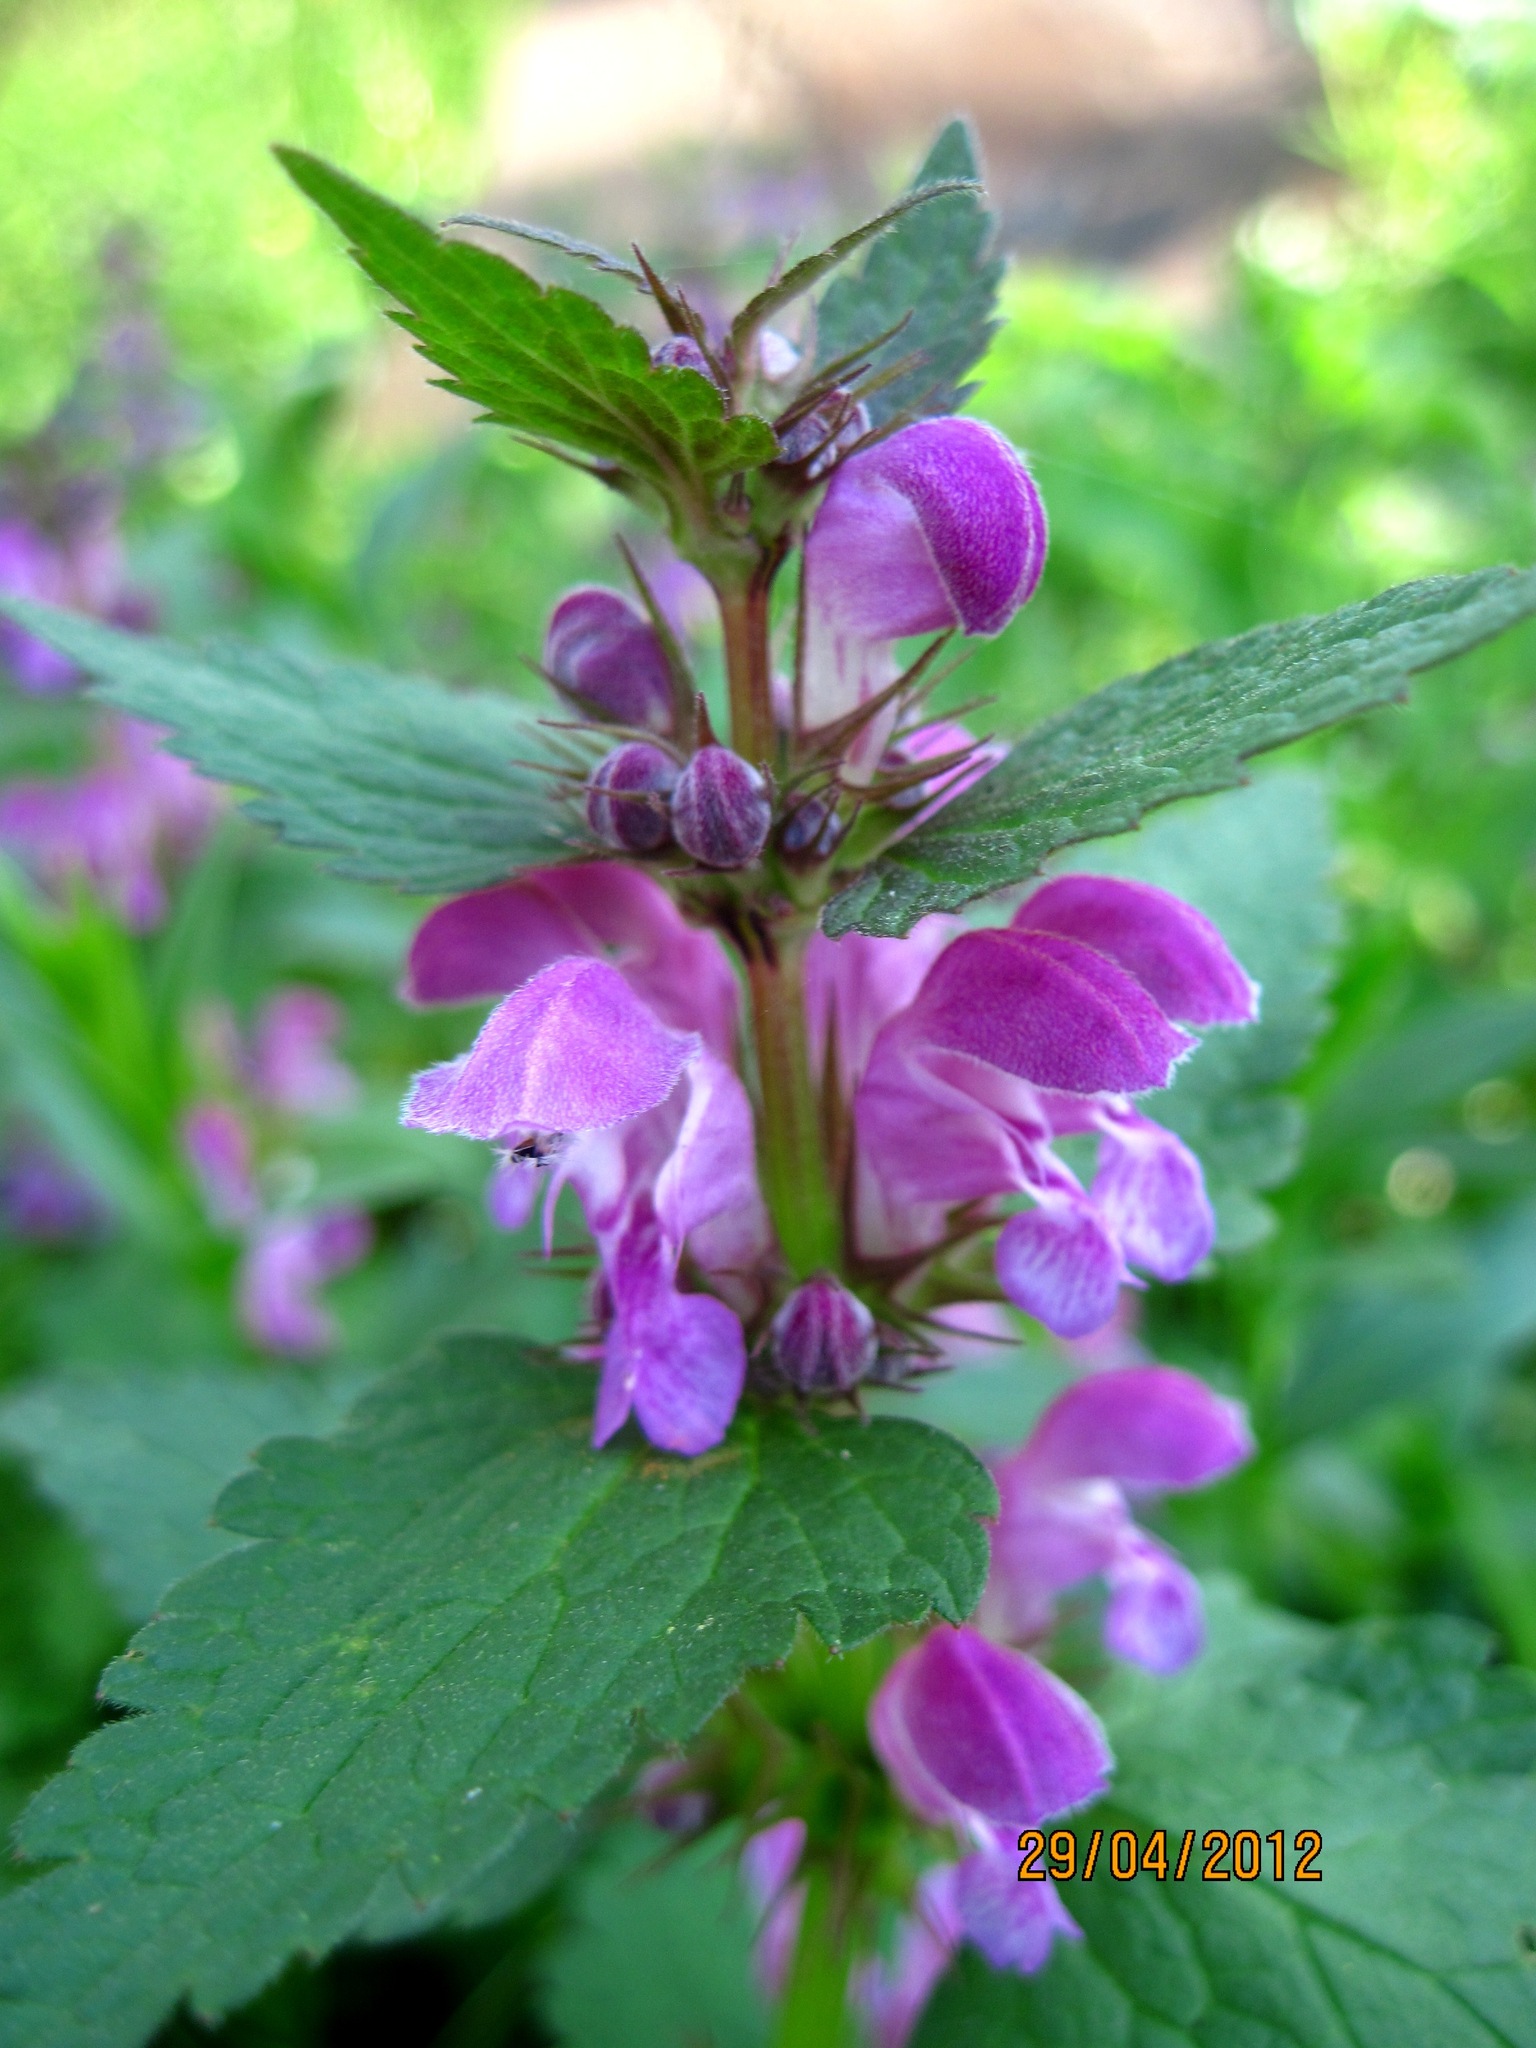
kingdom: Plantae
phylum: Tracheophyta
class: Magnoliopsida
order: Lamiales
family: Lamiaceae
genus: Lamium
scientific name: Lamium maculatum
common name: Spotted dead-nettle
